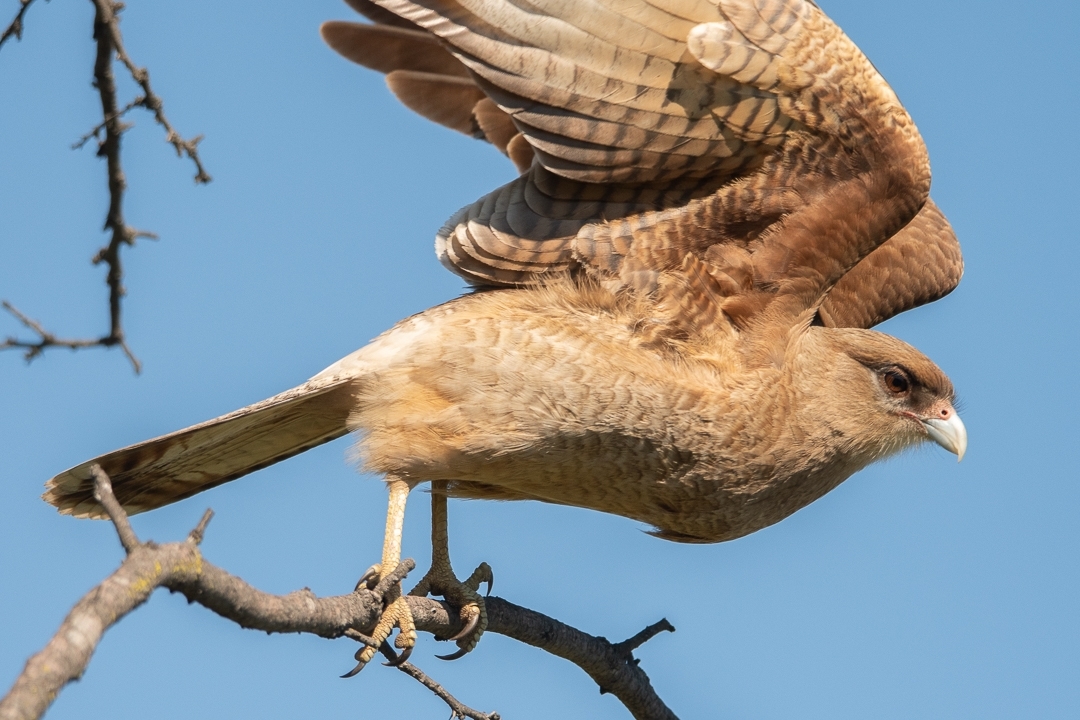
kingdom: Animalia
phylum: Chordata
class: Aves
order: Falconiformes
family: Falconidae
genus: Daptrius
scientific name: Daptrius
